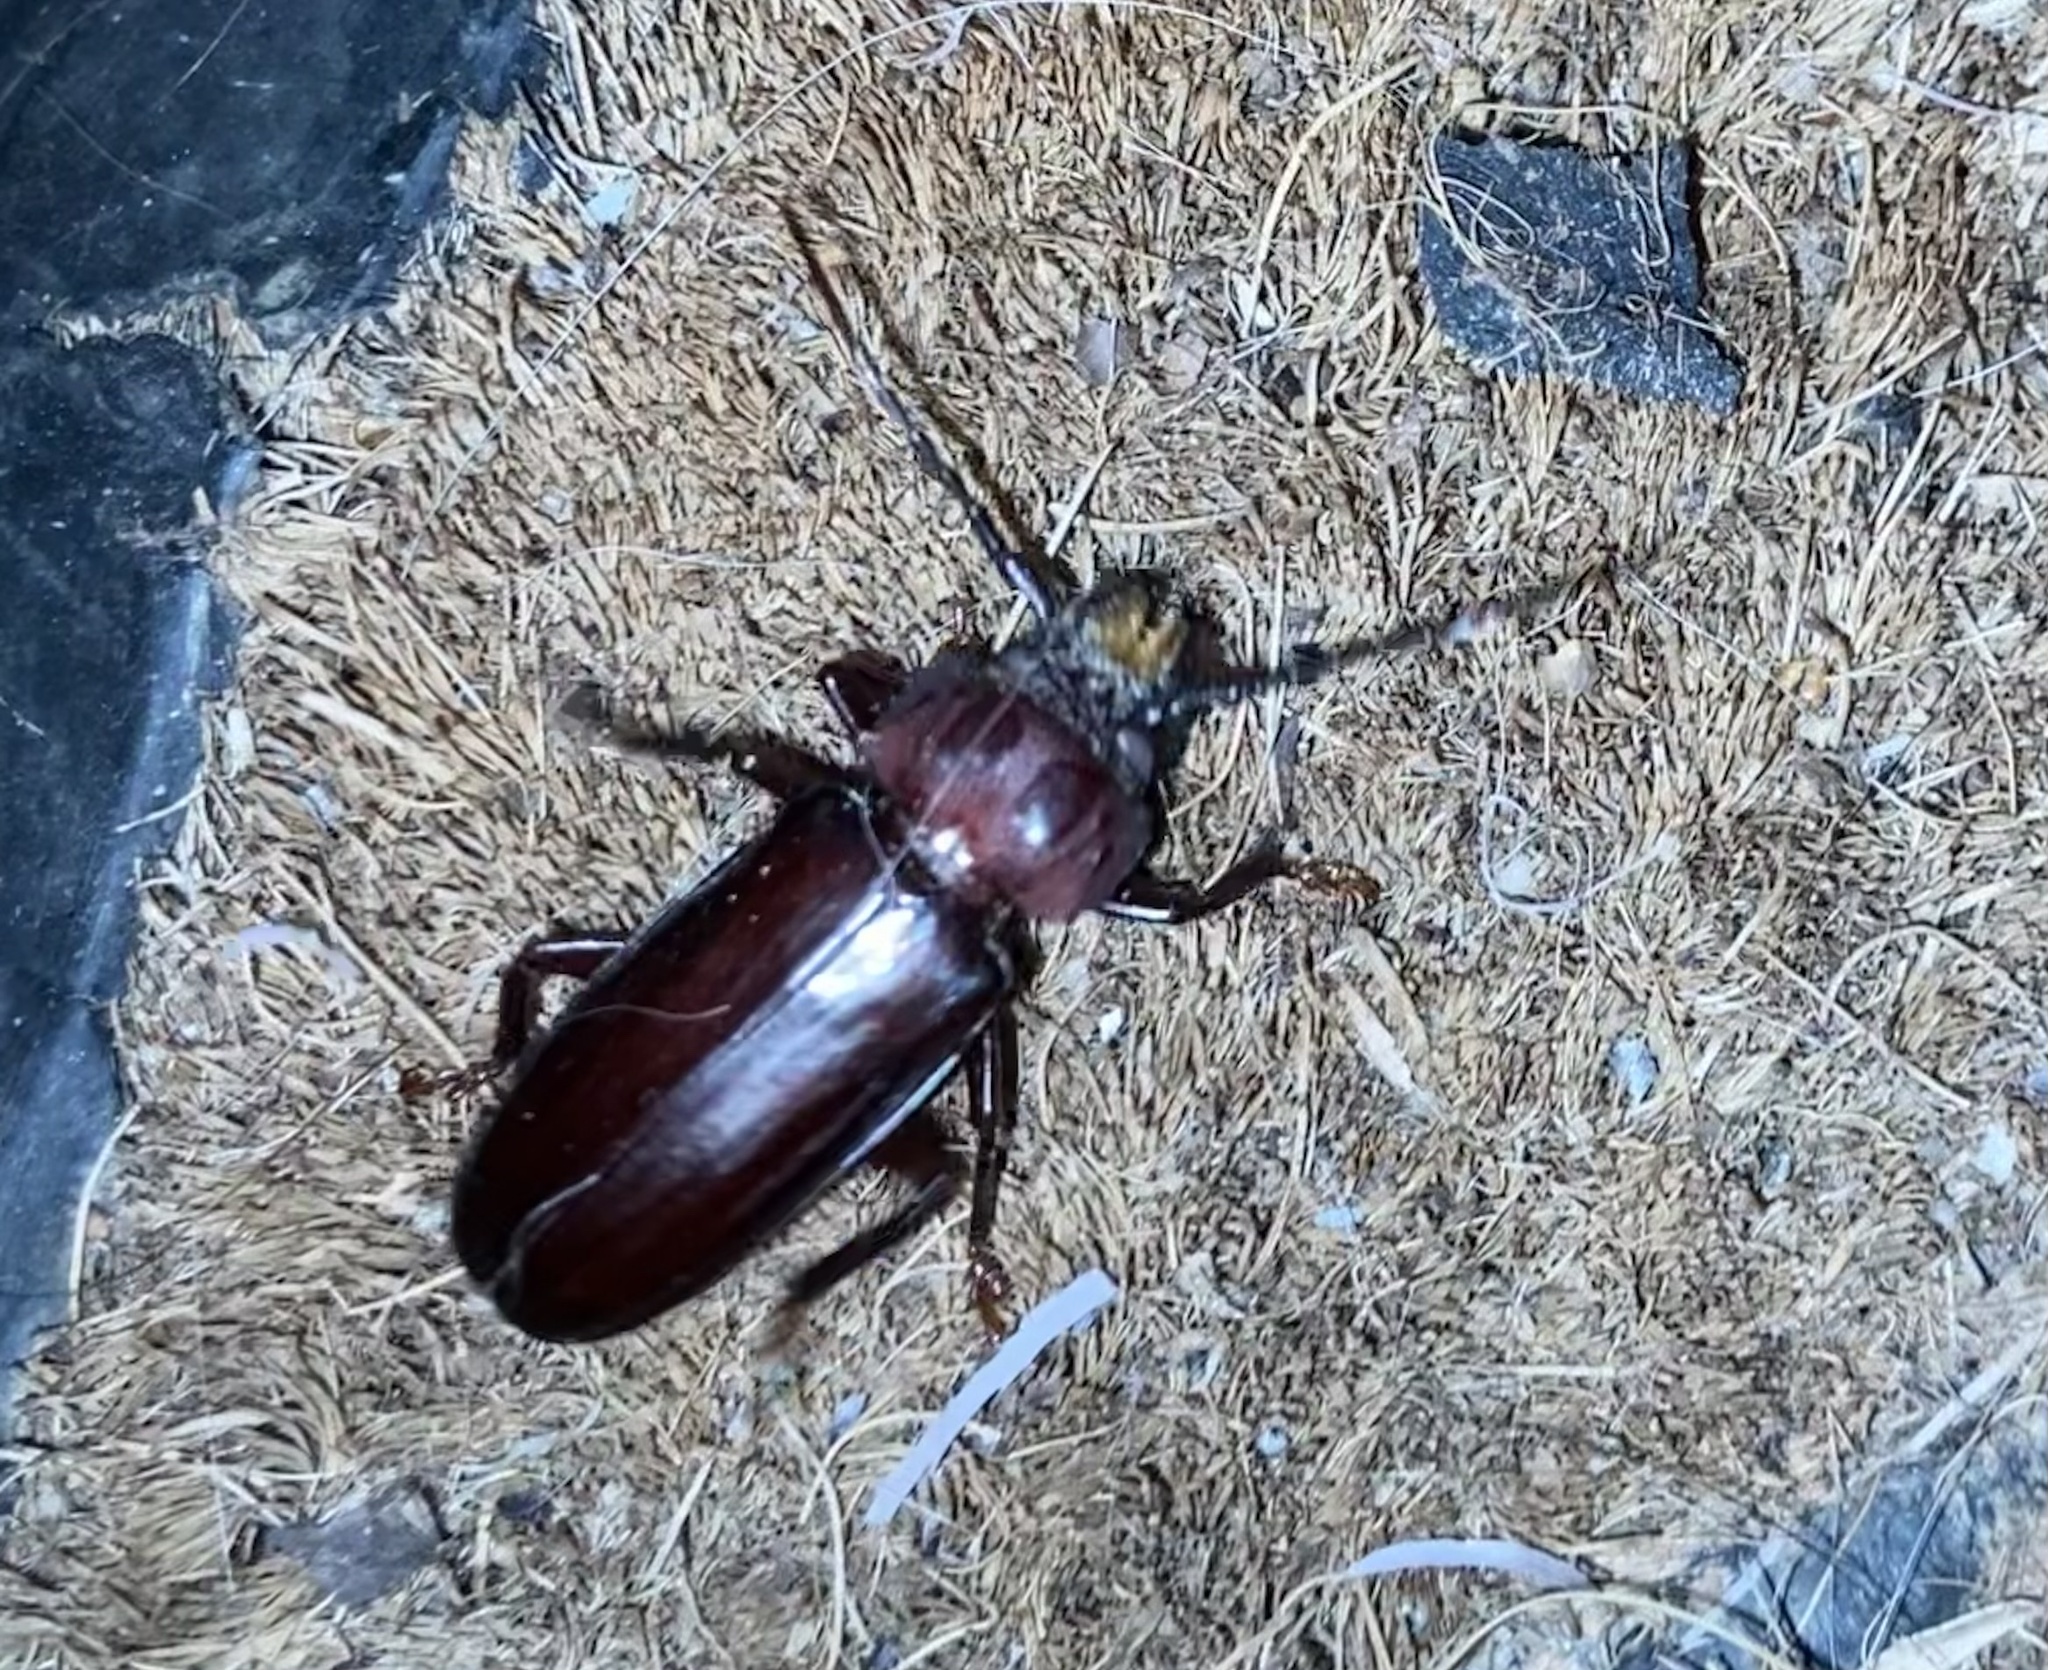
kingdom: Animalia
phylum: Arthropoda
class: Insecta
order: Coleoptera
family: Cerambycidae
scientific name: Cerambycidae
